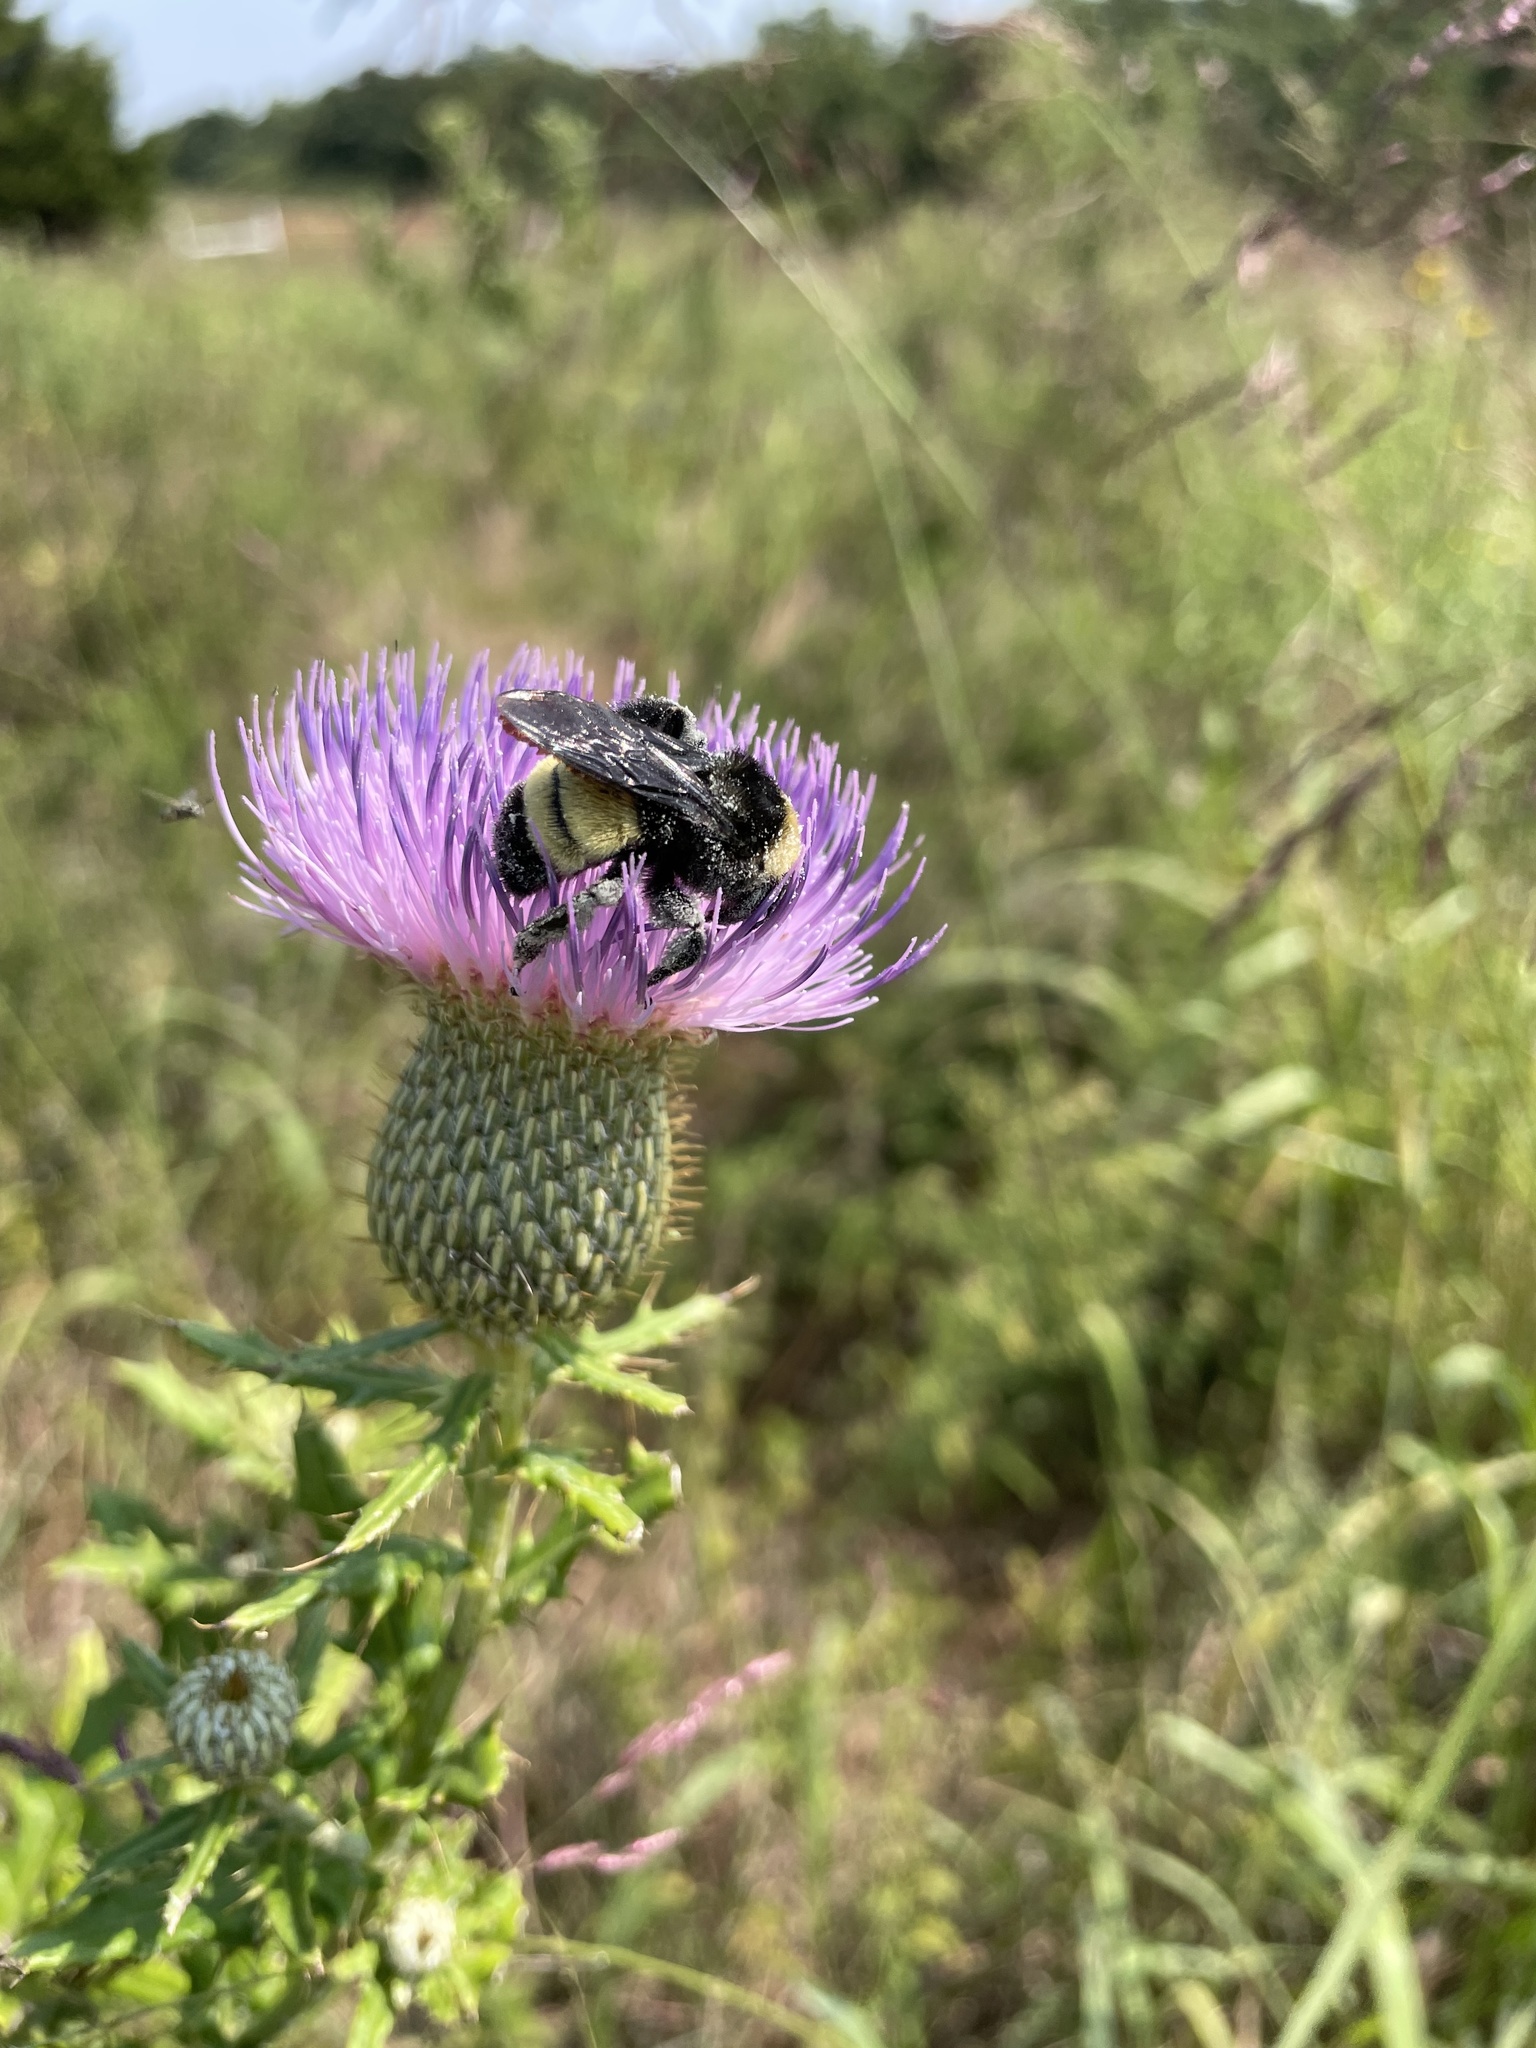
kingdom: Animalia
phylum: Arthropoda
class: Insecta
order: Hymenoptera
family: Apidae
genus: Bombus
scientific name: Bombus pensylvanicus
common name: Bumble bee
